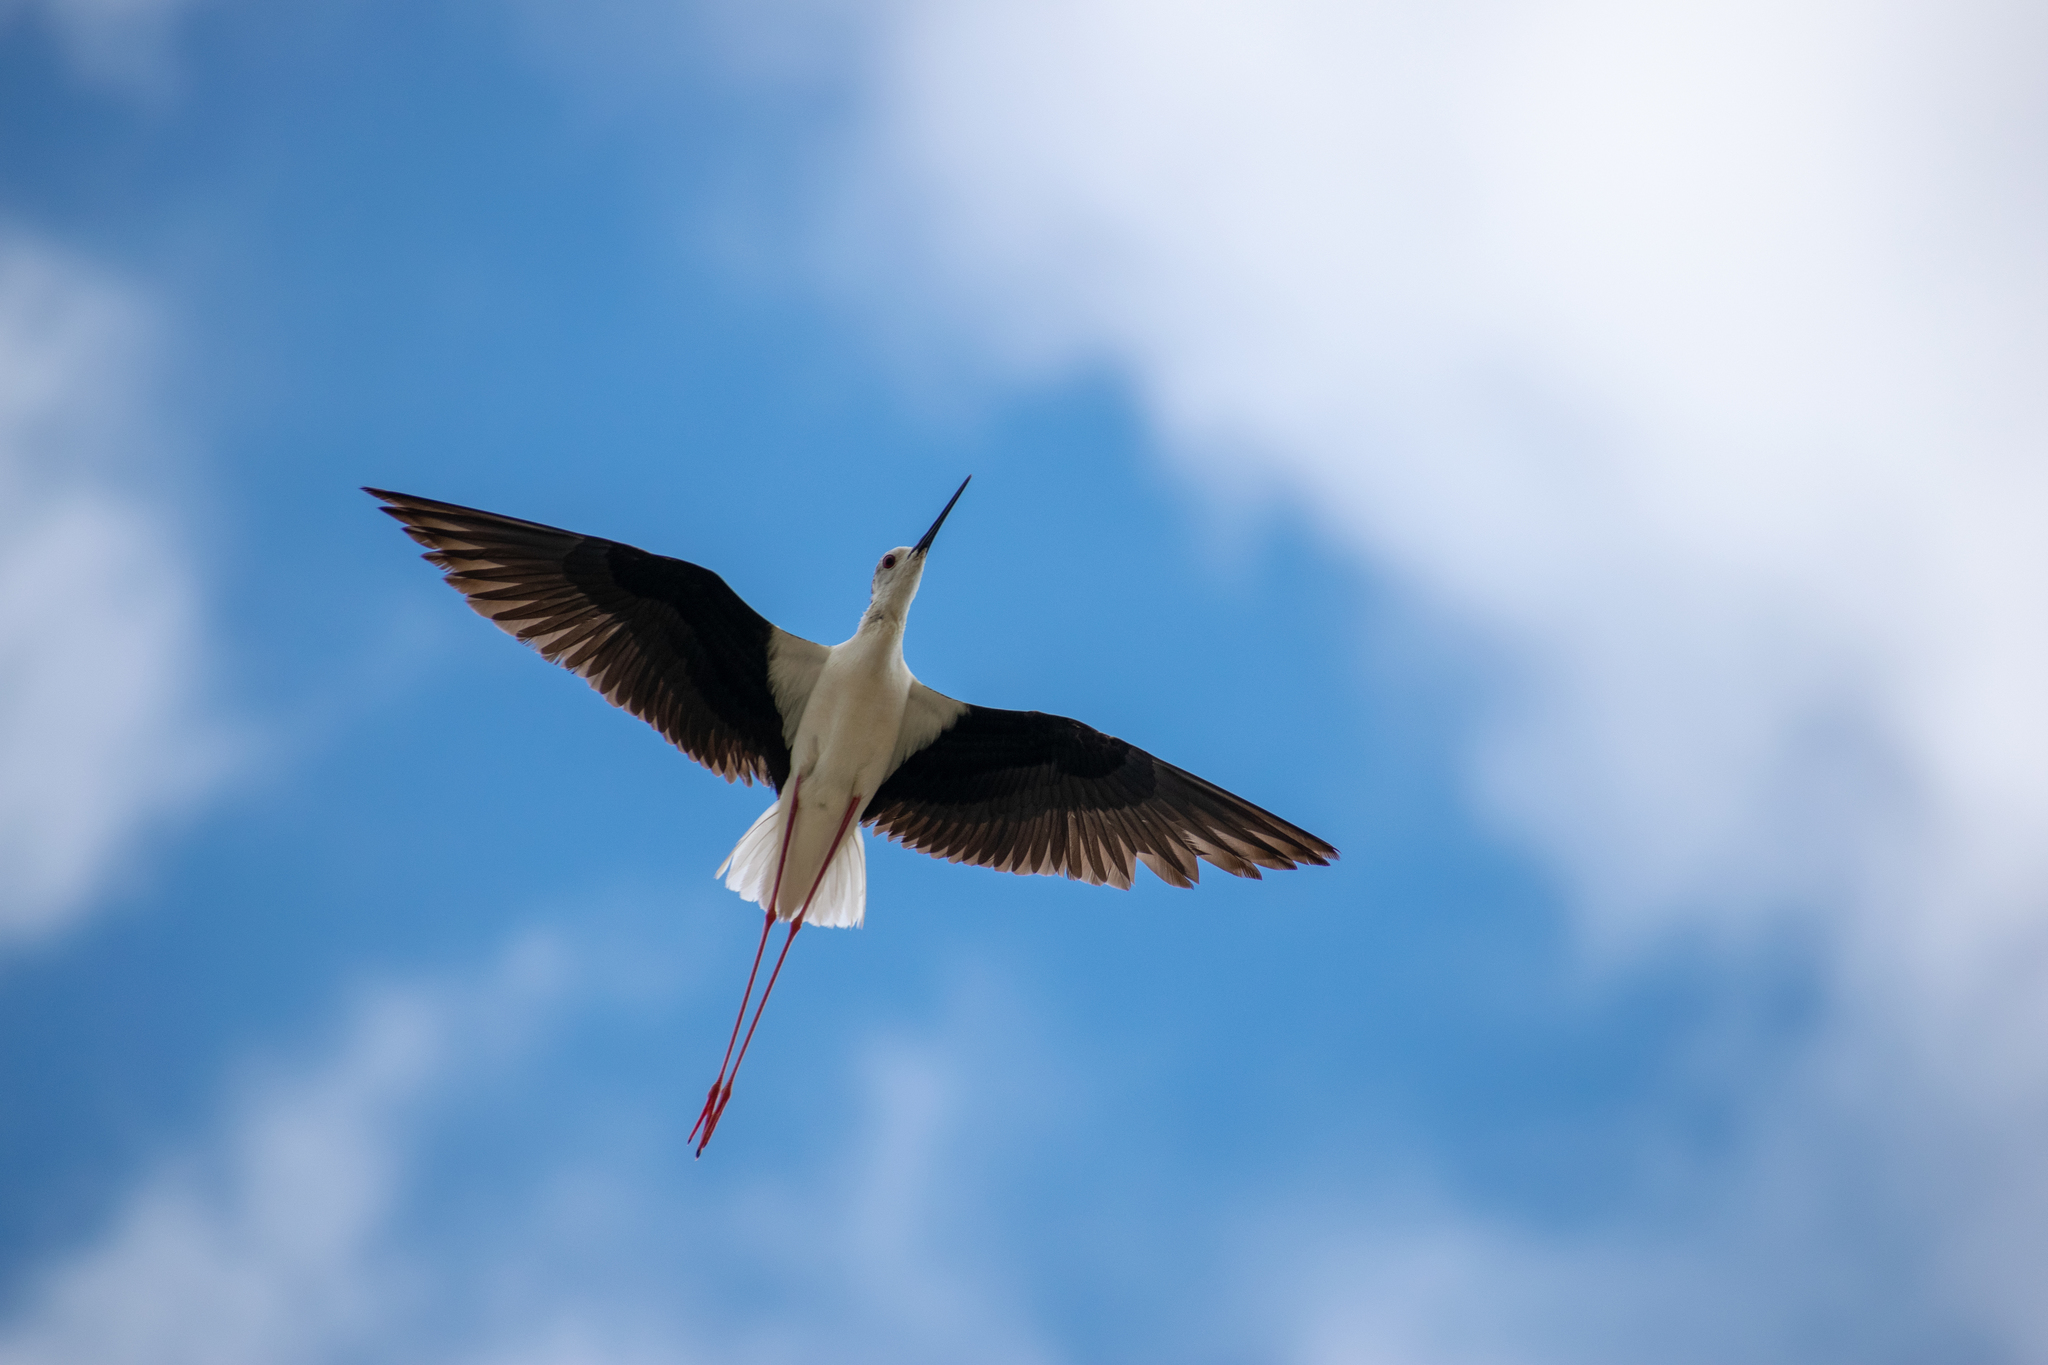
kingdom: Animalia
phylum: Chordata
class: Aves
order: Charadriiformes
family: Recurvirostridae
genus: Himantopus
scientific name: Himantopus himantopus
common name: Black-winged stilt
